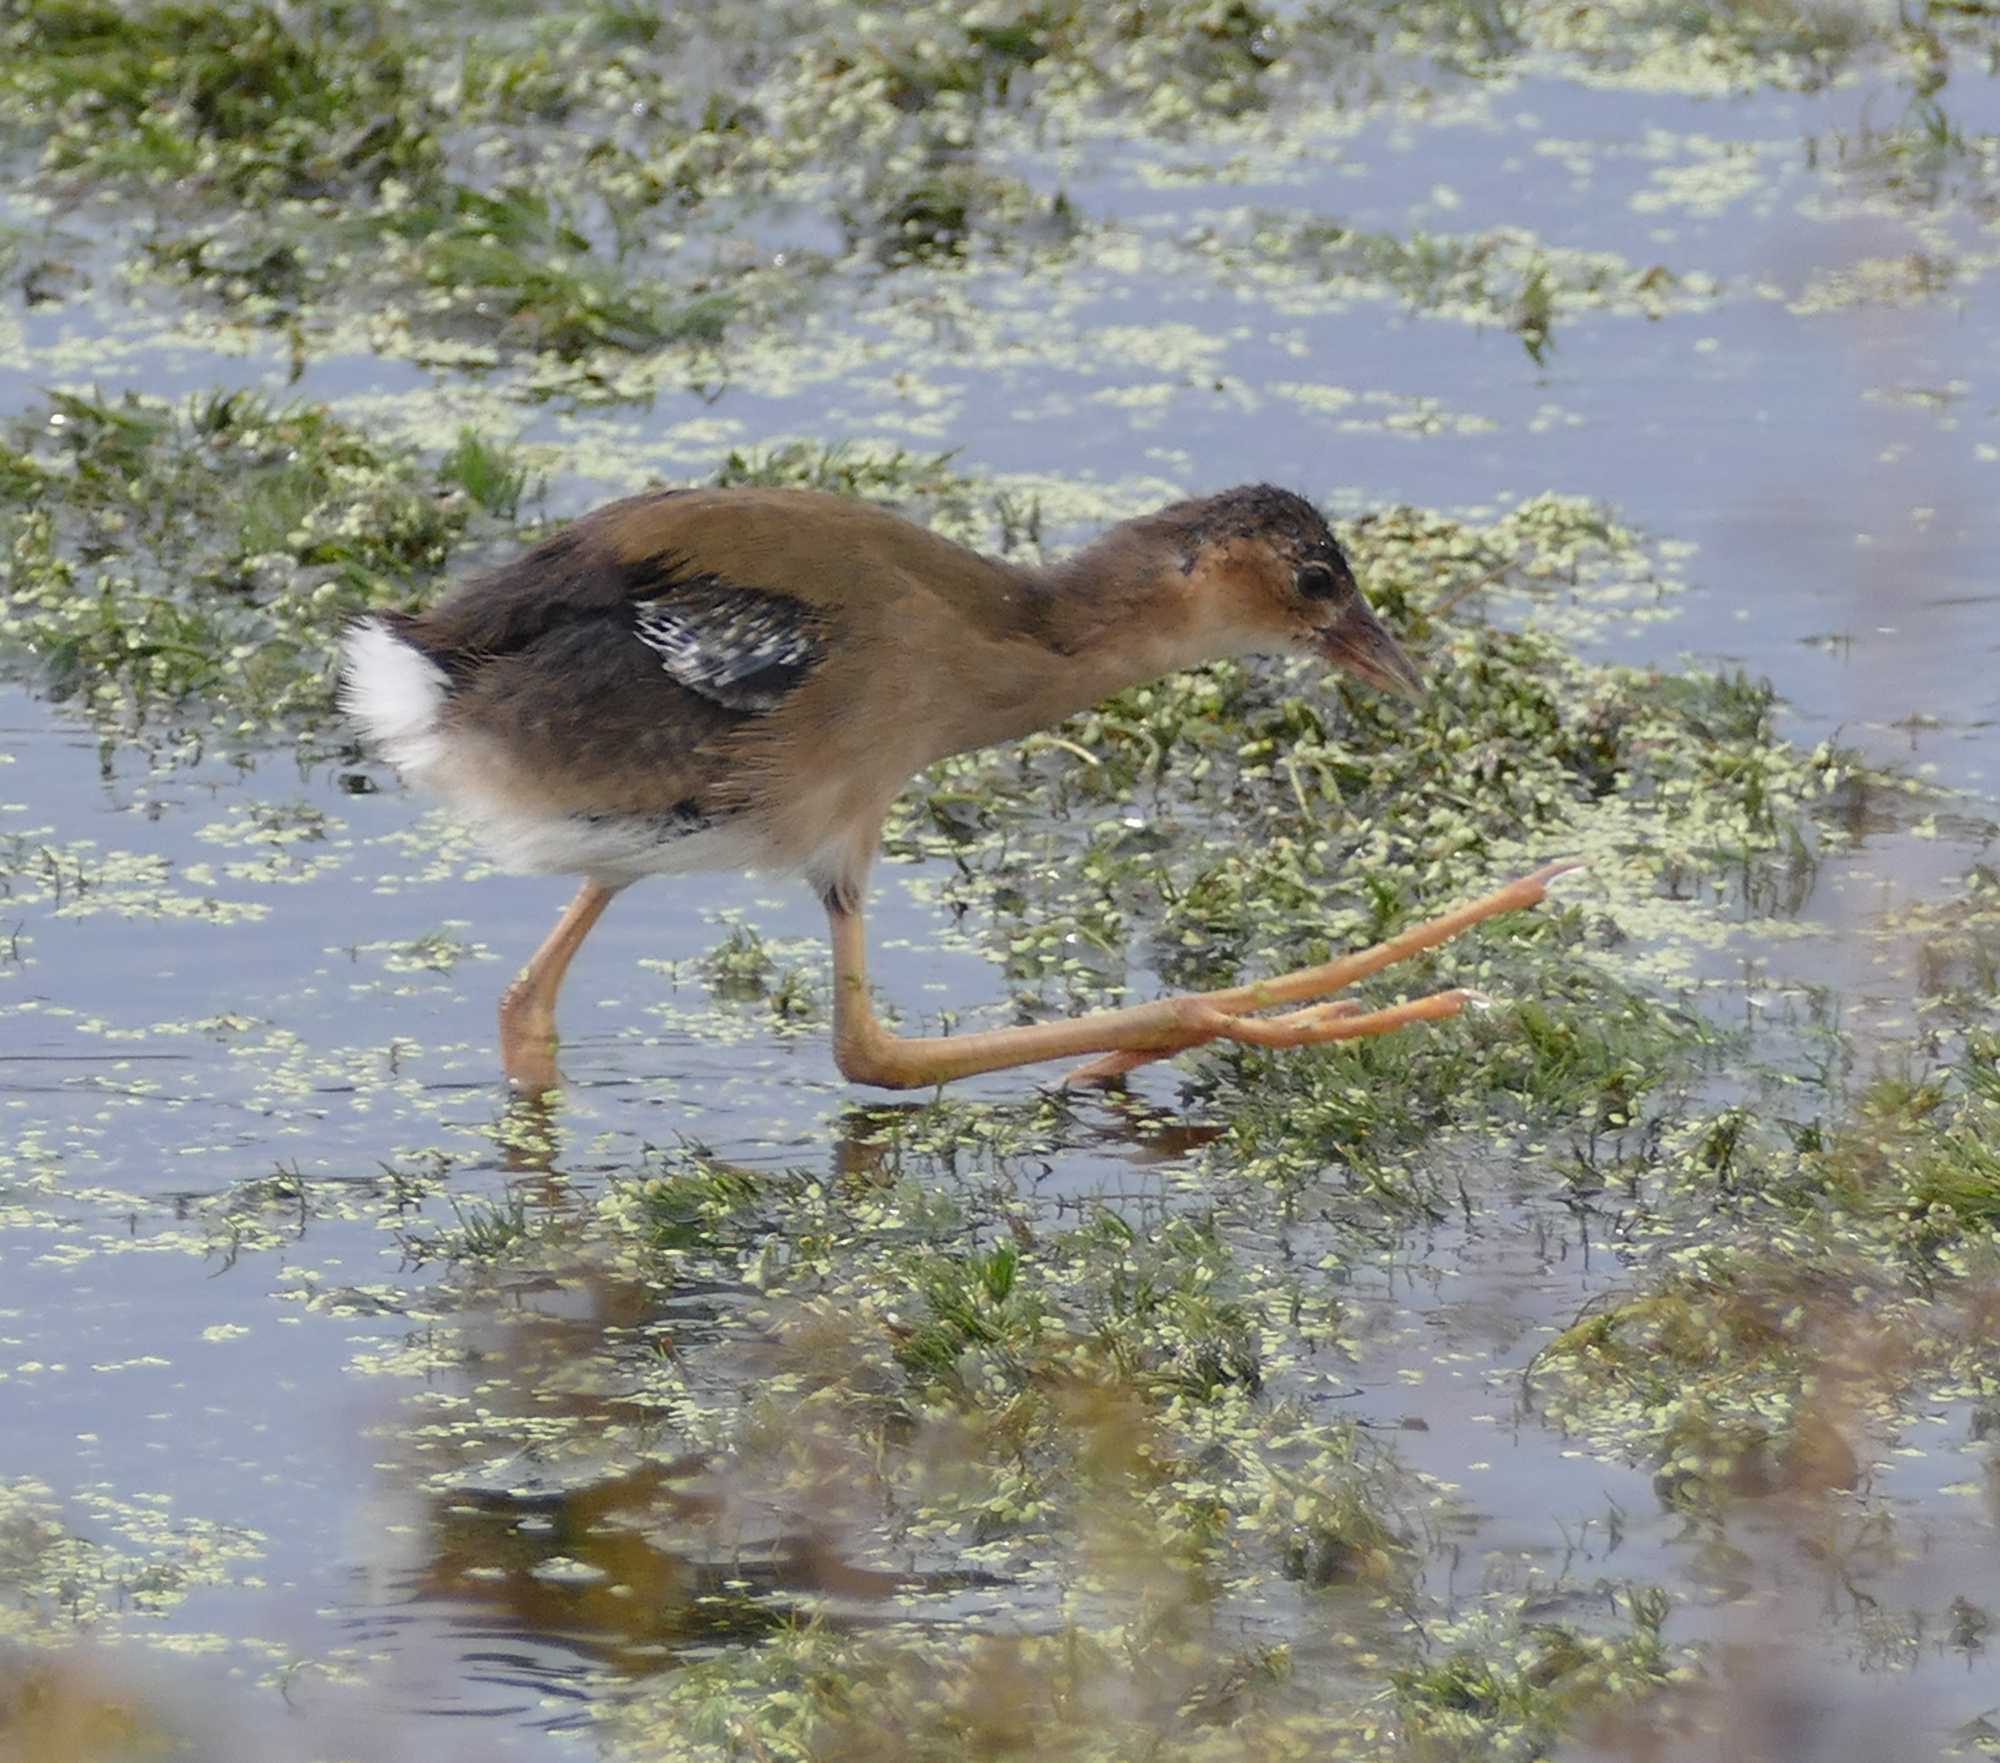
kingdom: Animalia
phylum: Chordata
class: Aves
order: Gruiformes
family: Rallidae
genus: Porphyrio
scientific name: Porphyrio martinica
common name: Purple gallinule
